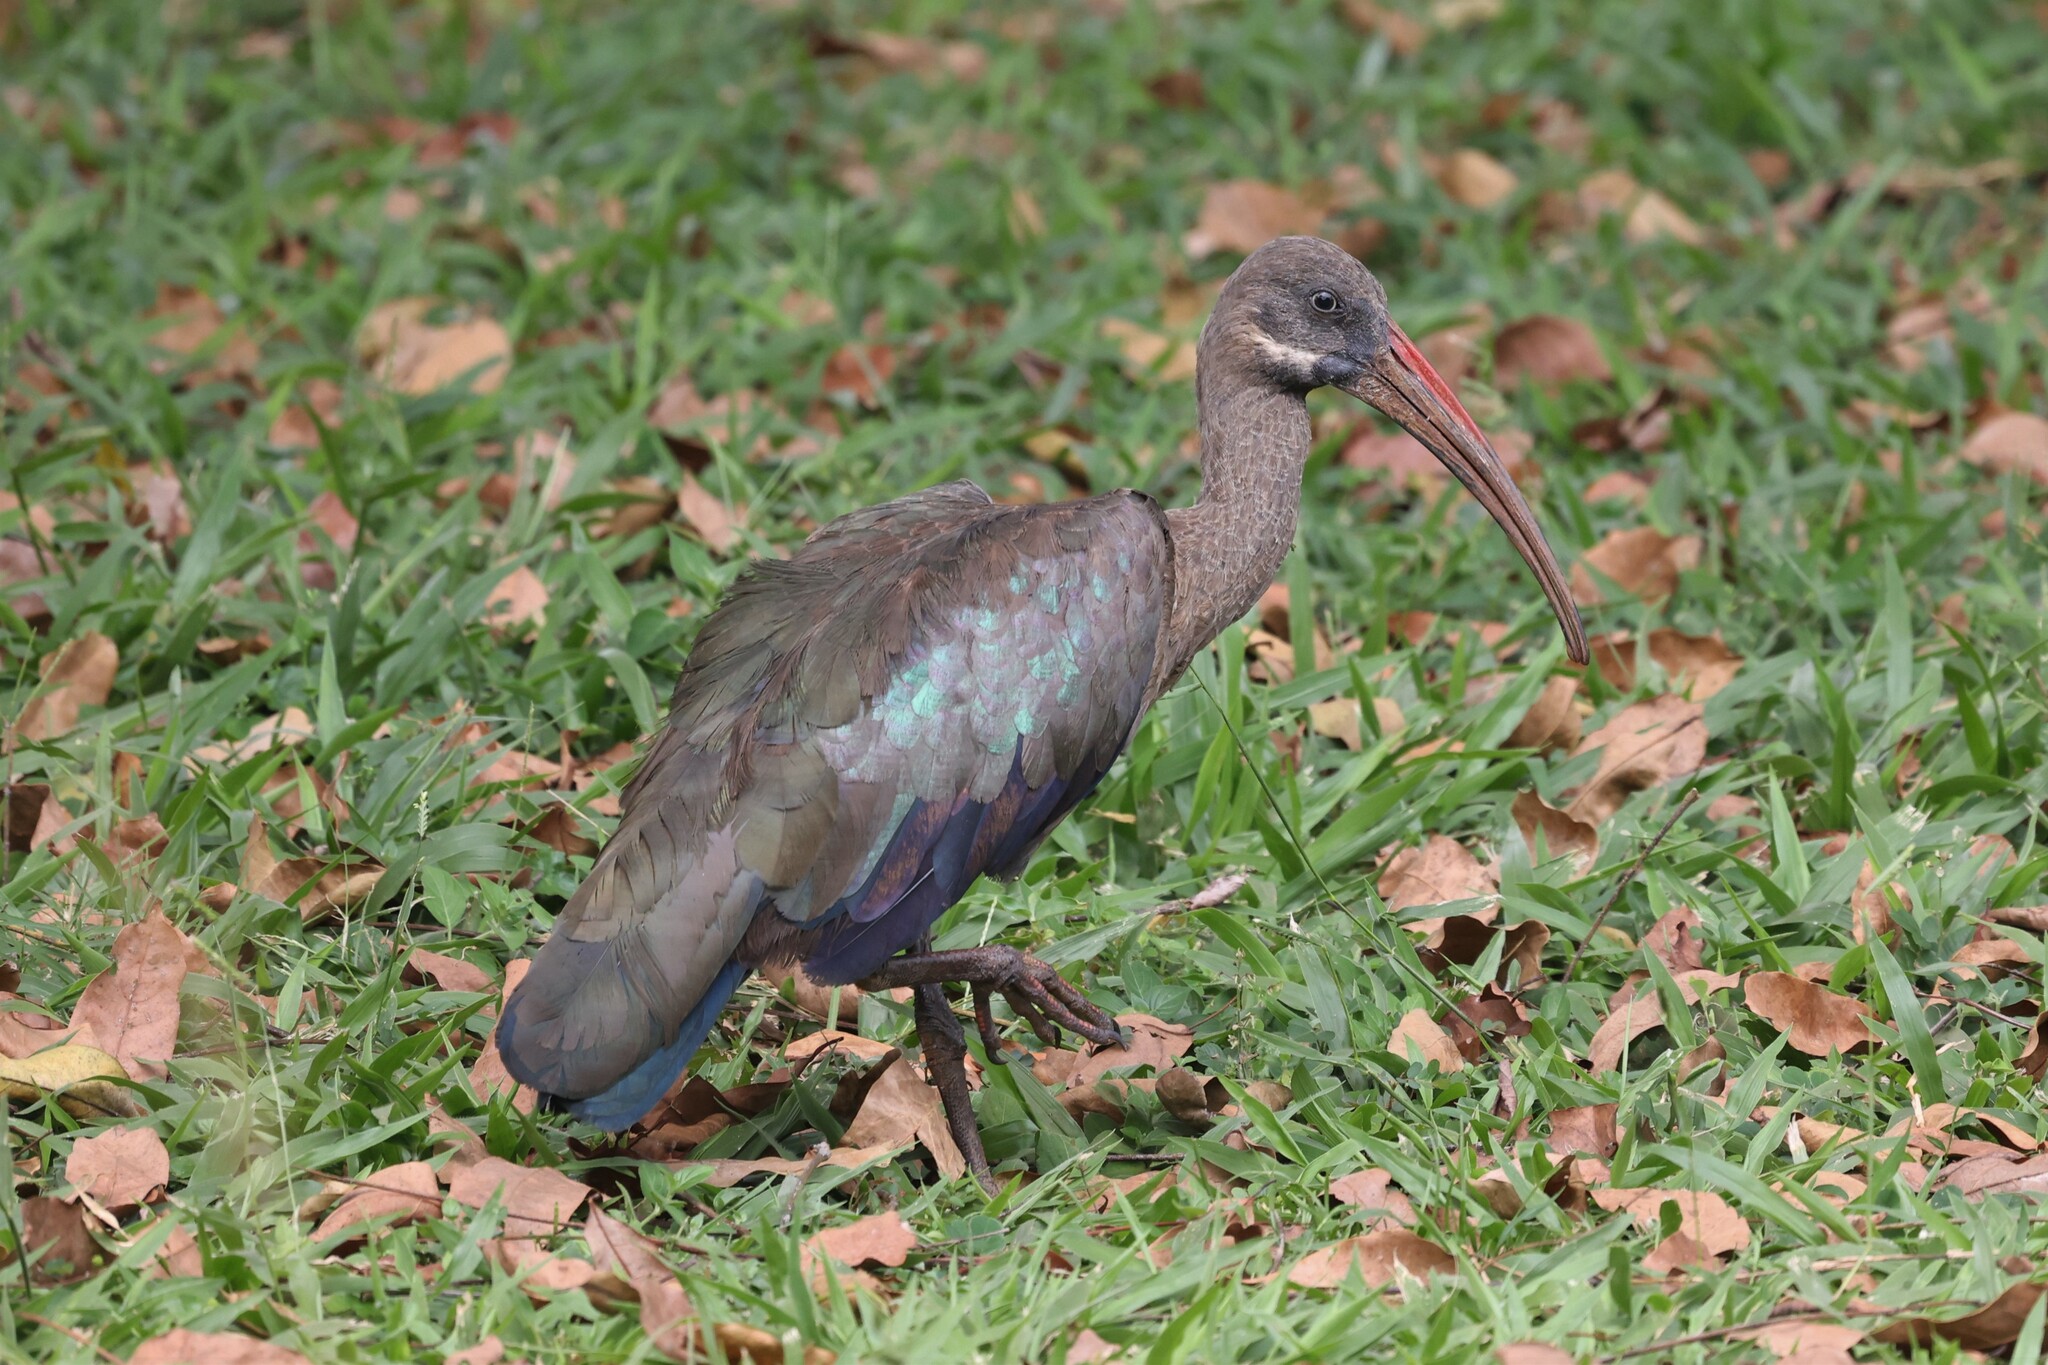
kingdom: Animalia
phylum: Chordata
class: Aves
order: Pelecaniformes
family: Threskiornithidae
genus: Bostrychia
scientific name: Bostrychia hagedash
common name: Hadada ibis
